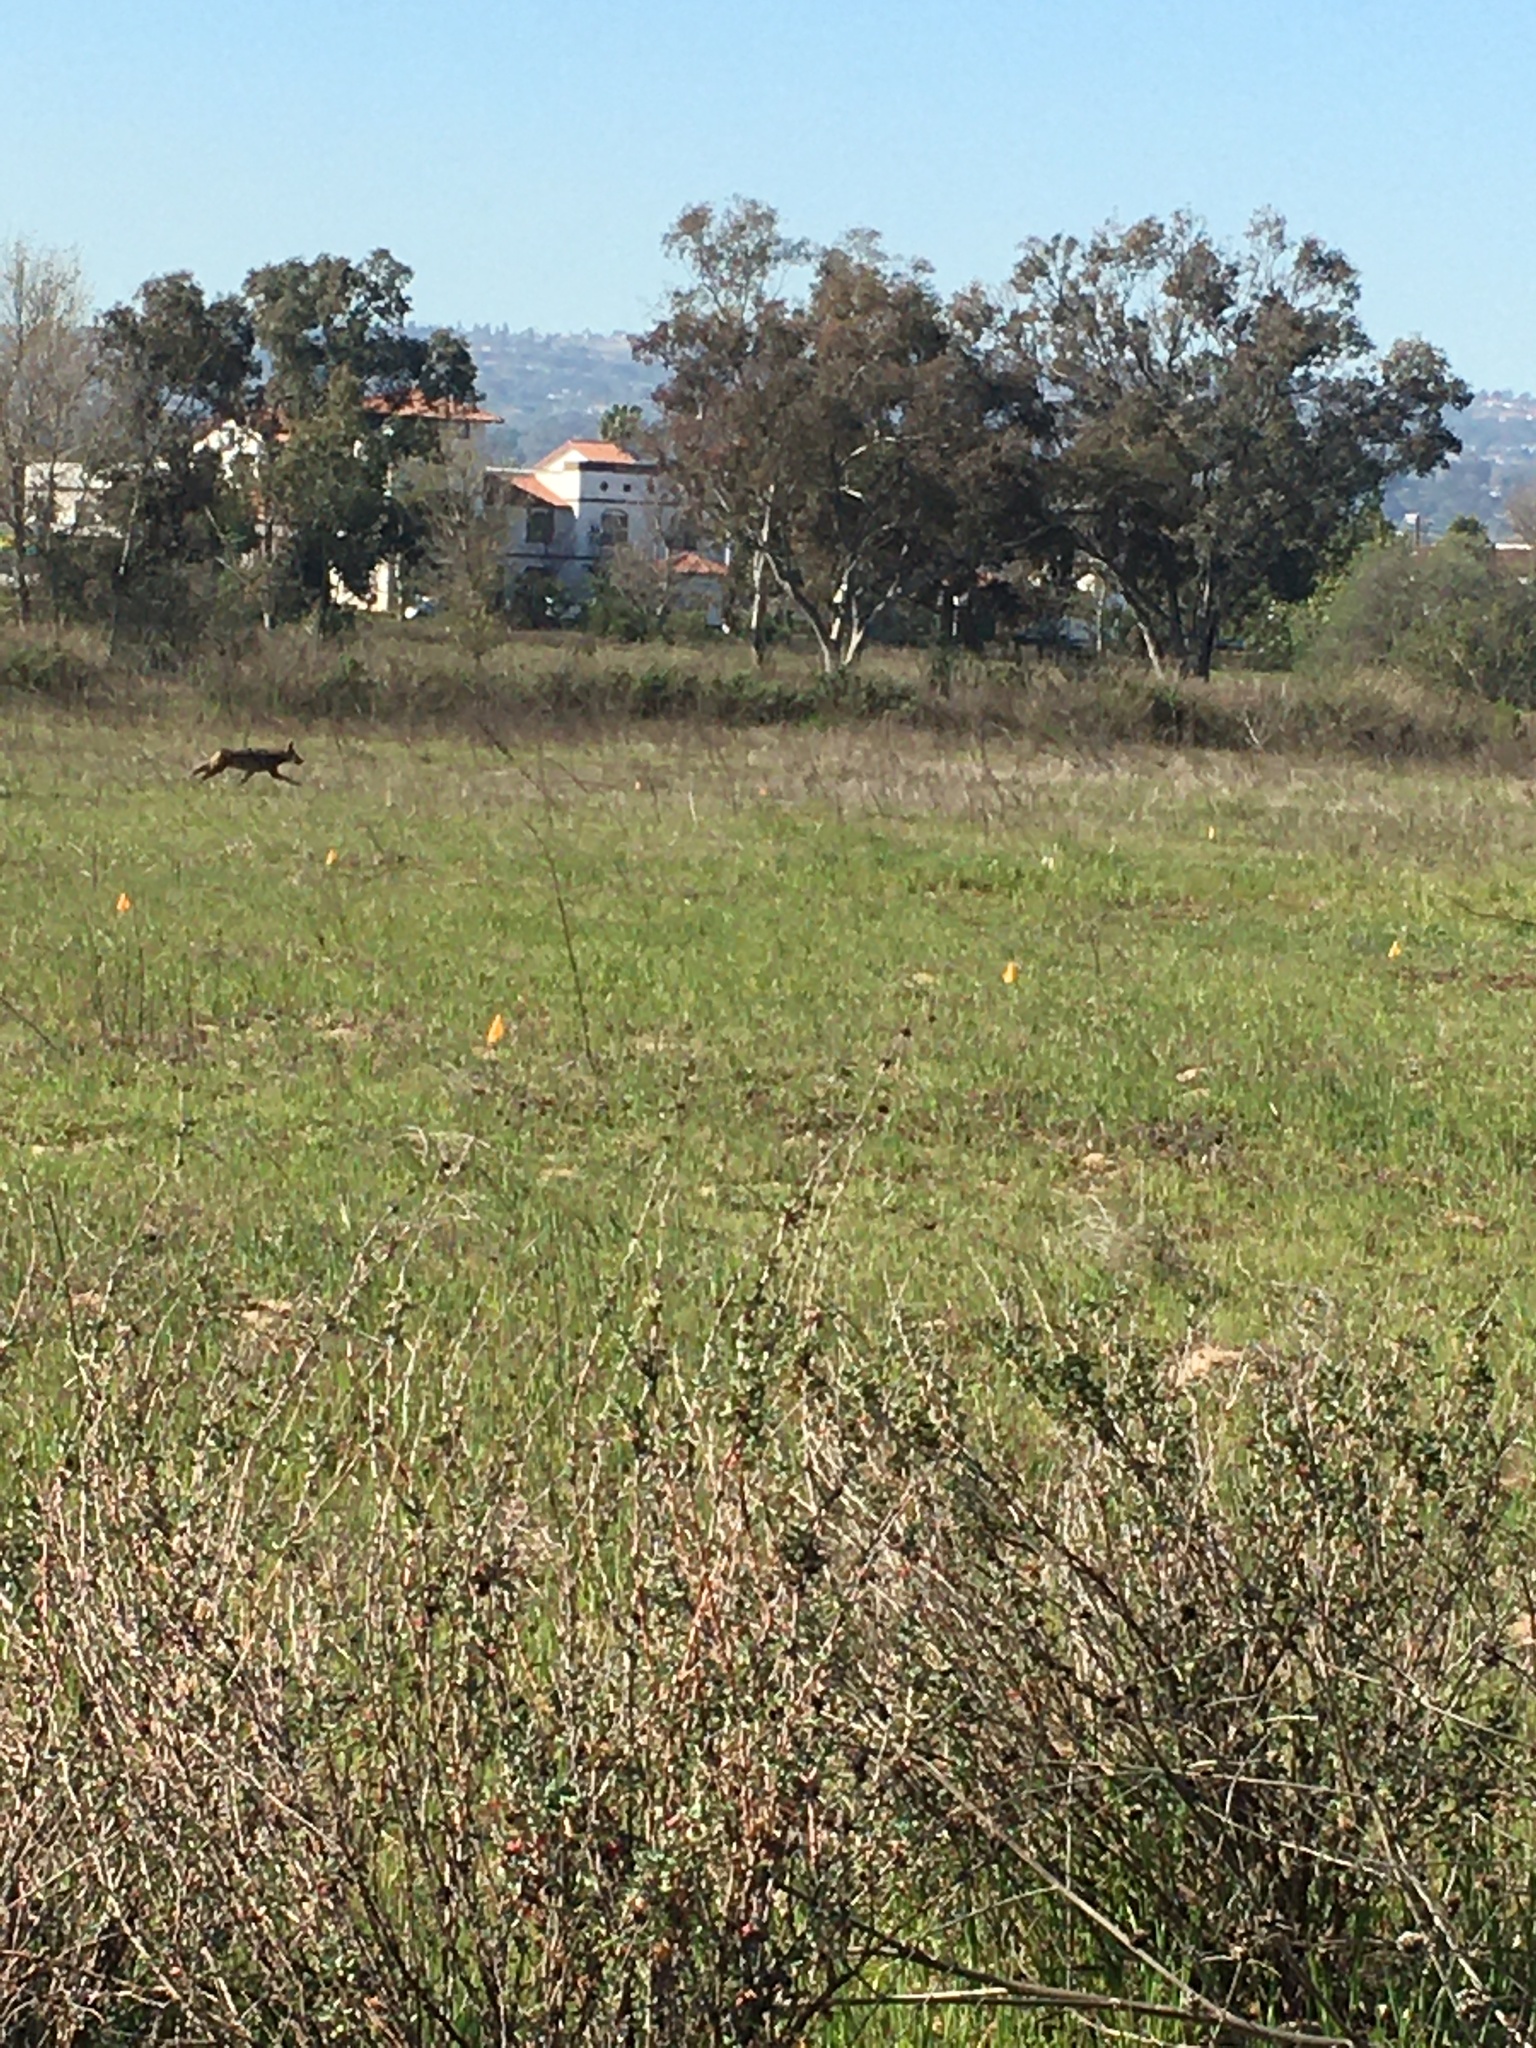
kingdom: Animalia
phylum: Chordata
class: Mammalia
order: Carnivora
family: Canidae
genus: Canis
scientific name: Canis latrans
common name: Coyote
